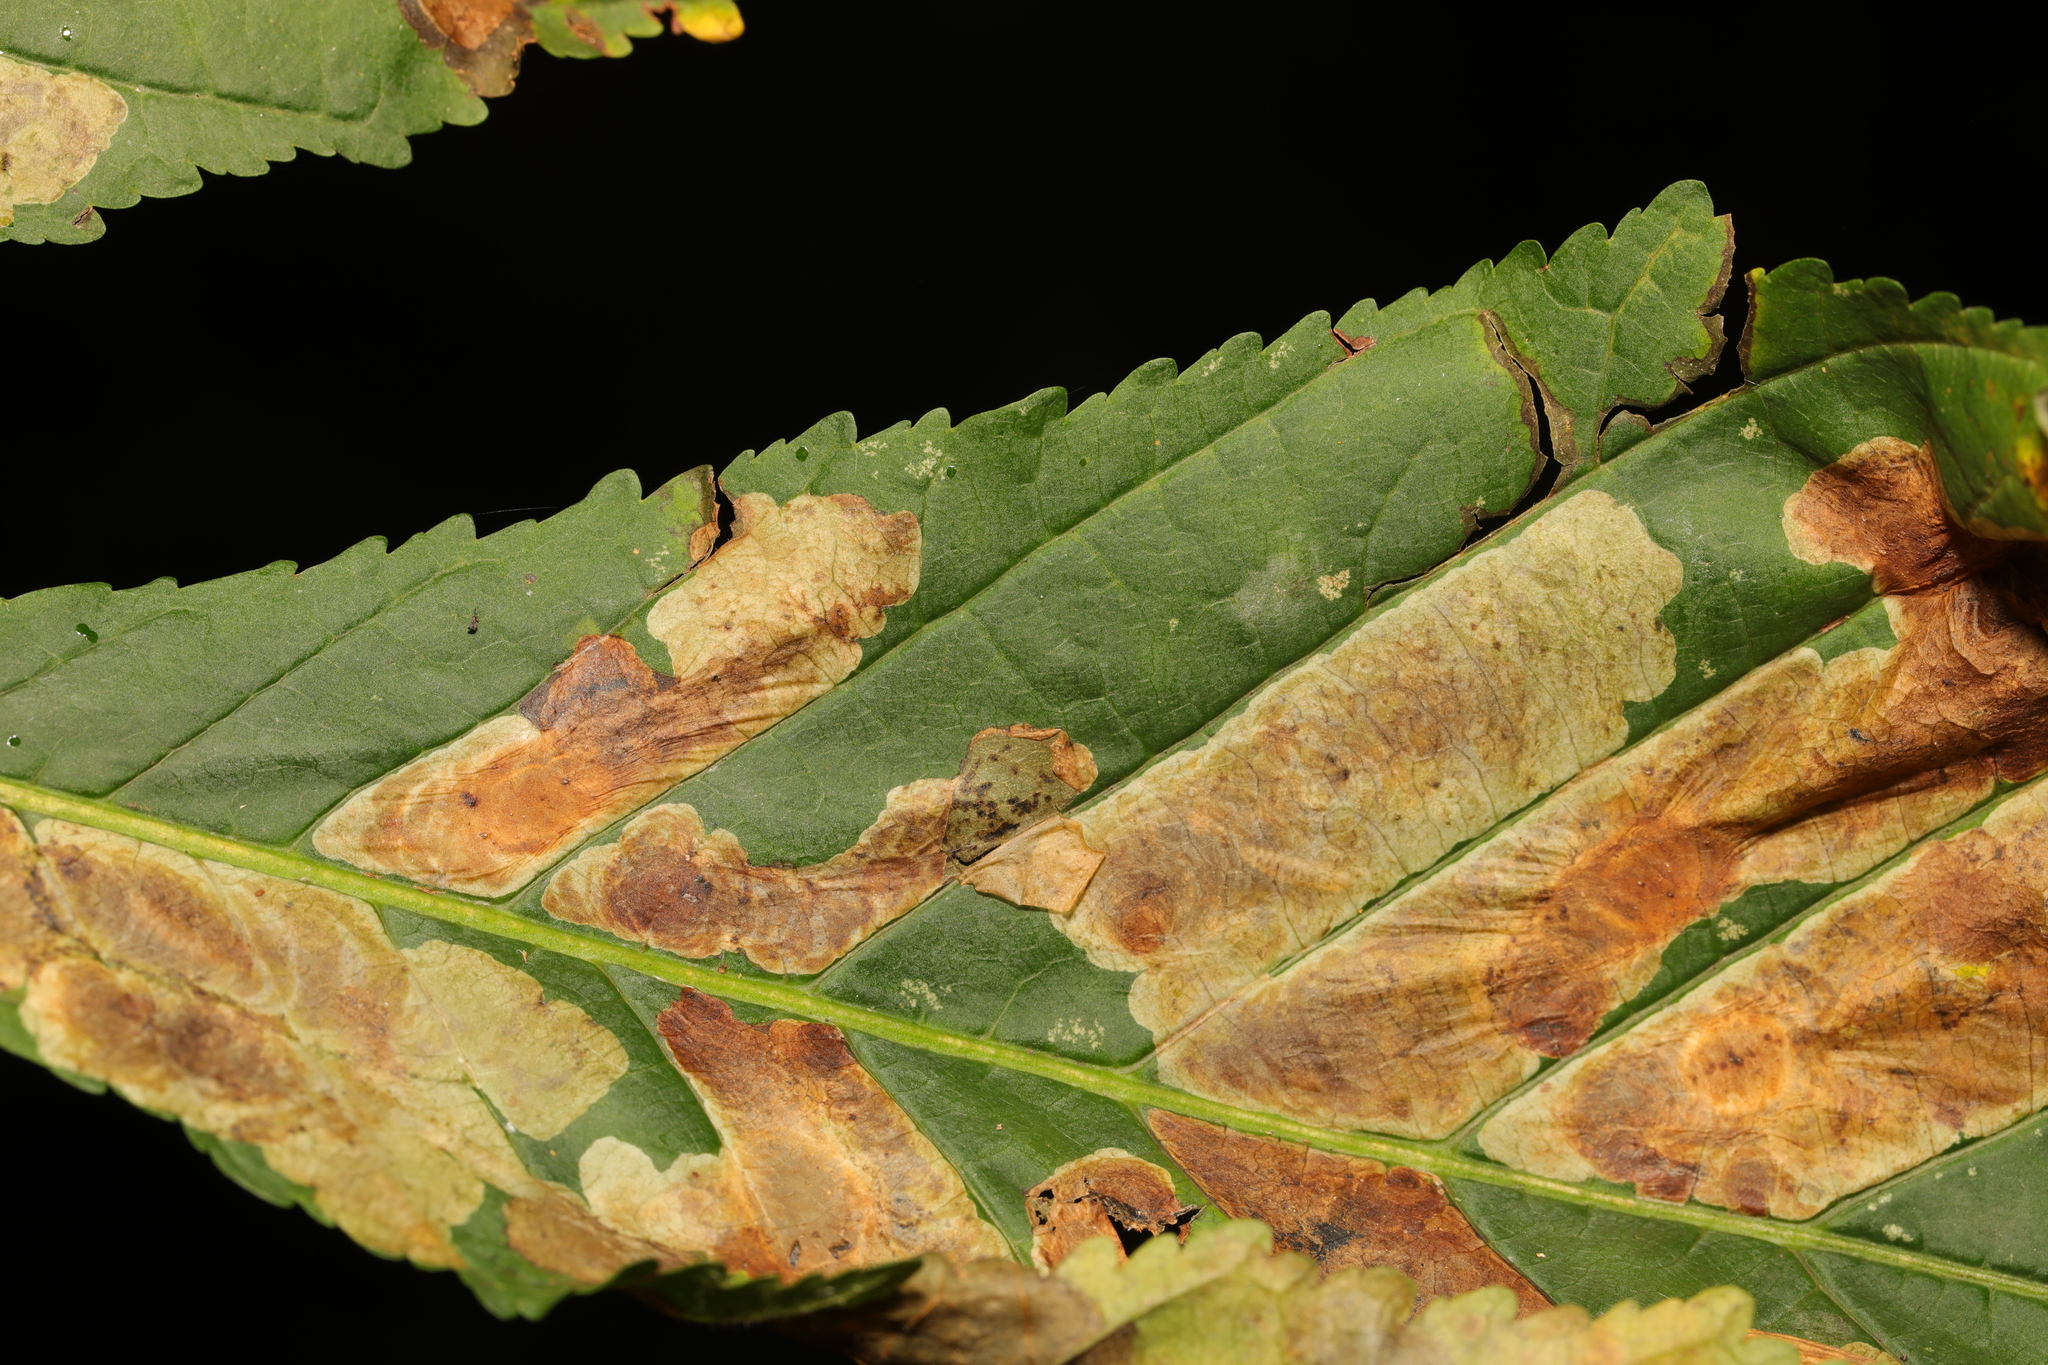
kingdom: Animalia
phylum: Arthropoda
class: Insecta
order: Lepidoptera
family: Gracillariidae
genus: Cameraria
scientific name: Cameraria ohridella
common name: Horse-chestnut leaf-miner
